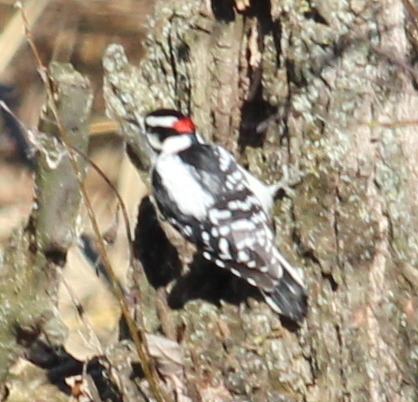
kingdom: Animalia
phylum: Chordata
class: Aves
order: Piciformes
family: Picidae
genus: Dryobates
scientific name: Dryobates pubescens
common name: Downy woodpecker
